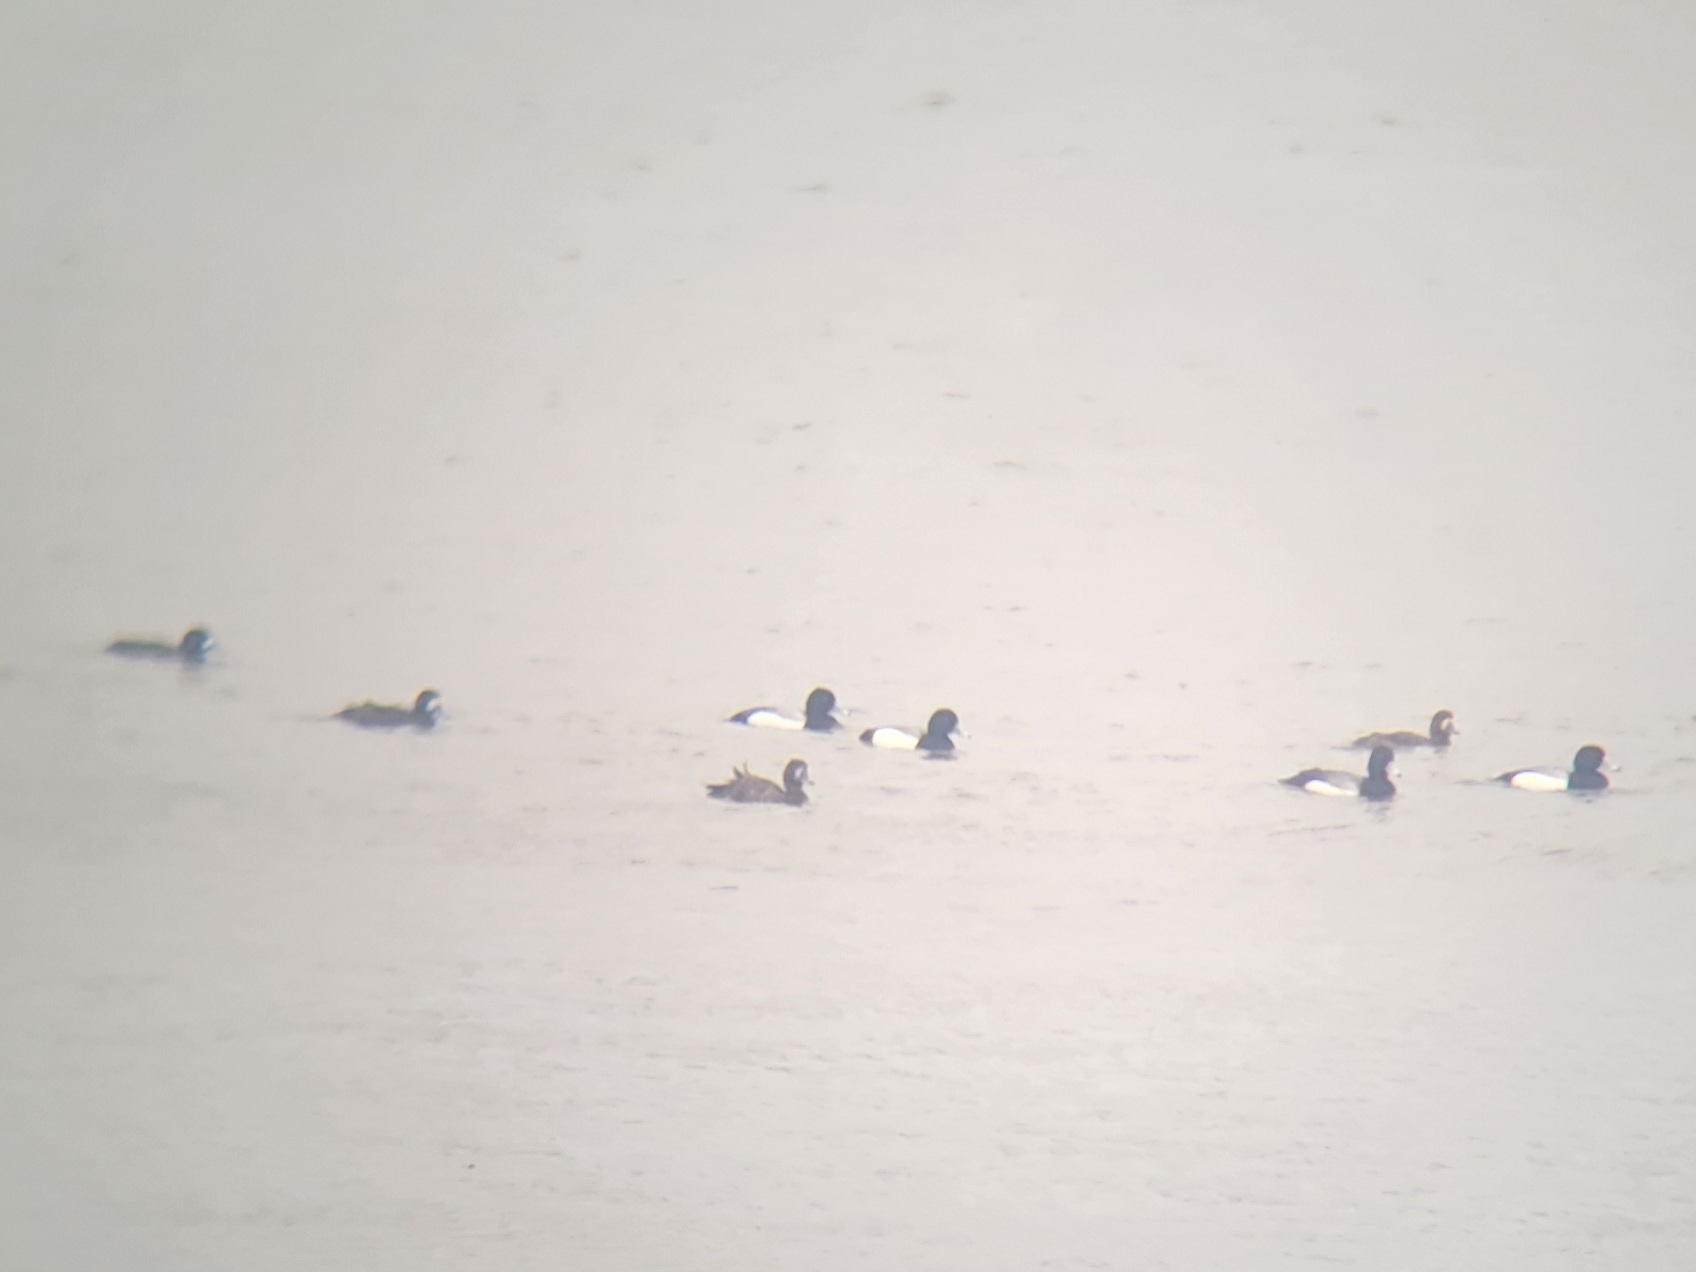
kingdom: Animalia
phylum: Chordata
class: Aves
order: Anseriformes
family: Anatidae
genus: Aythya
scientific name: Aythya marila
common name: Greater scaup
